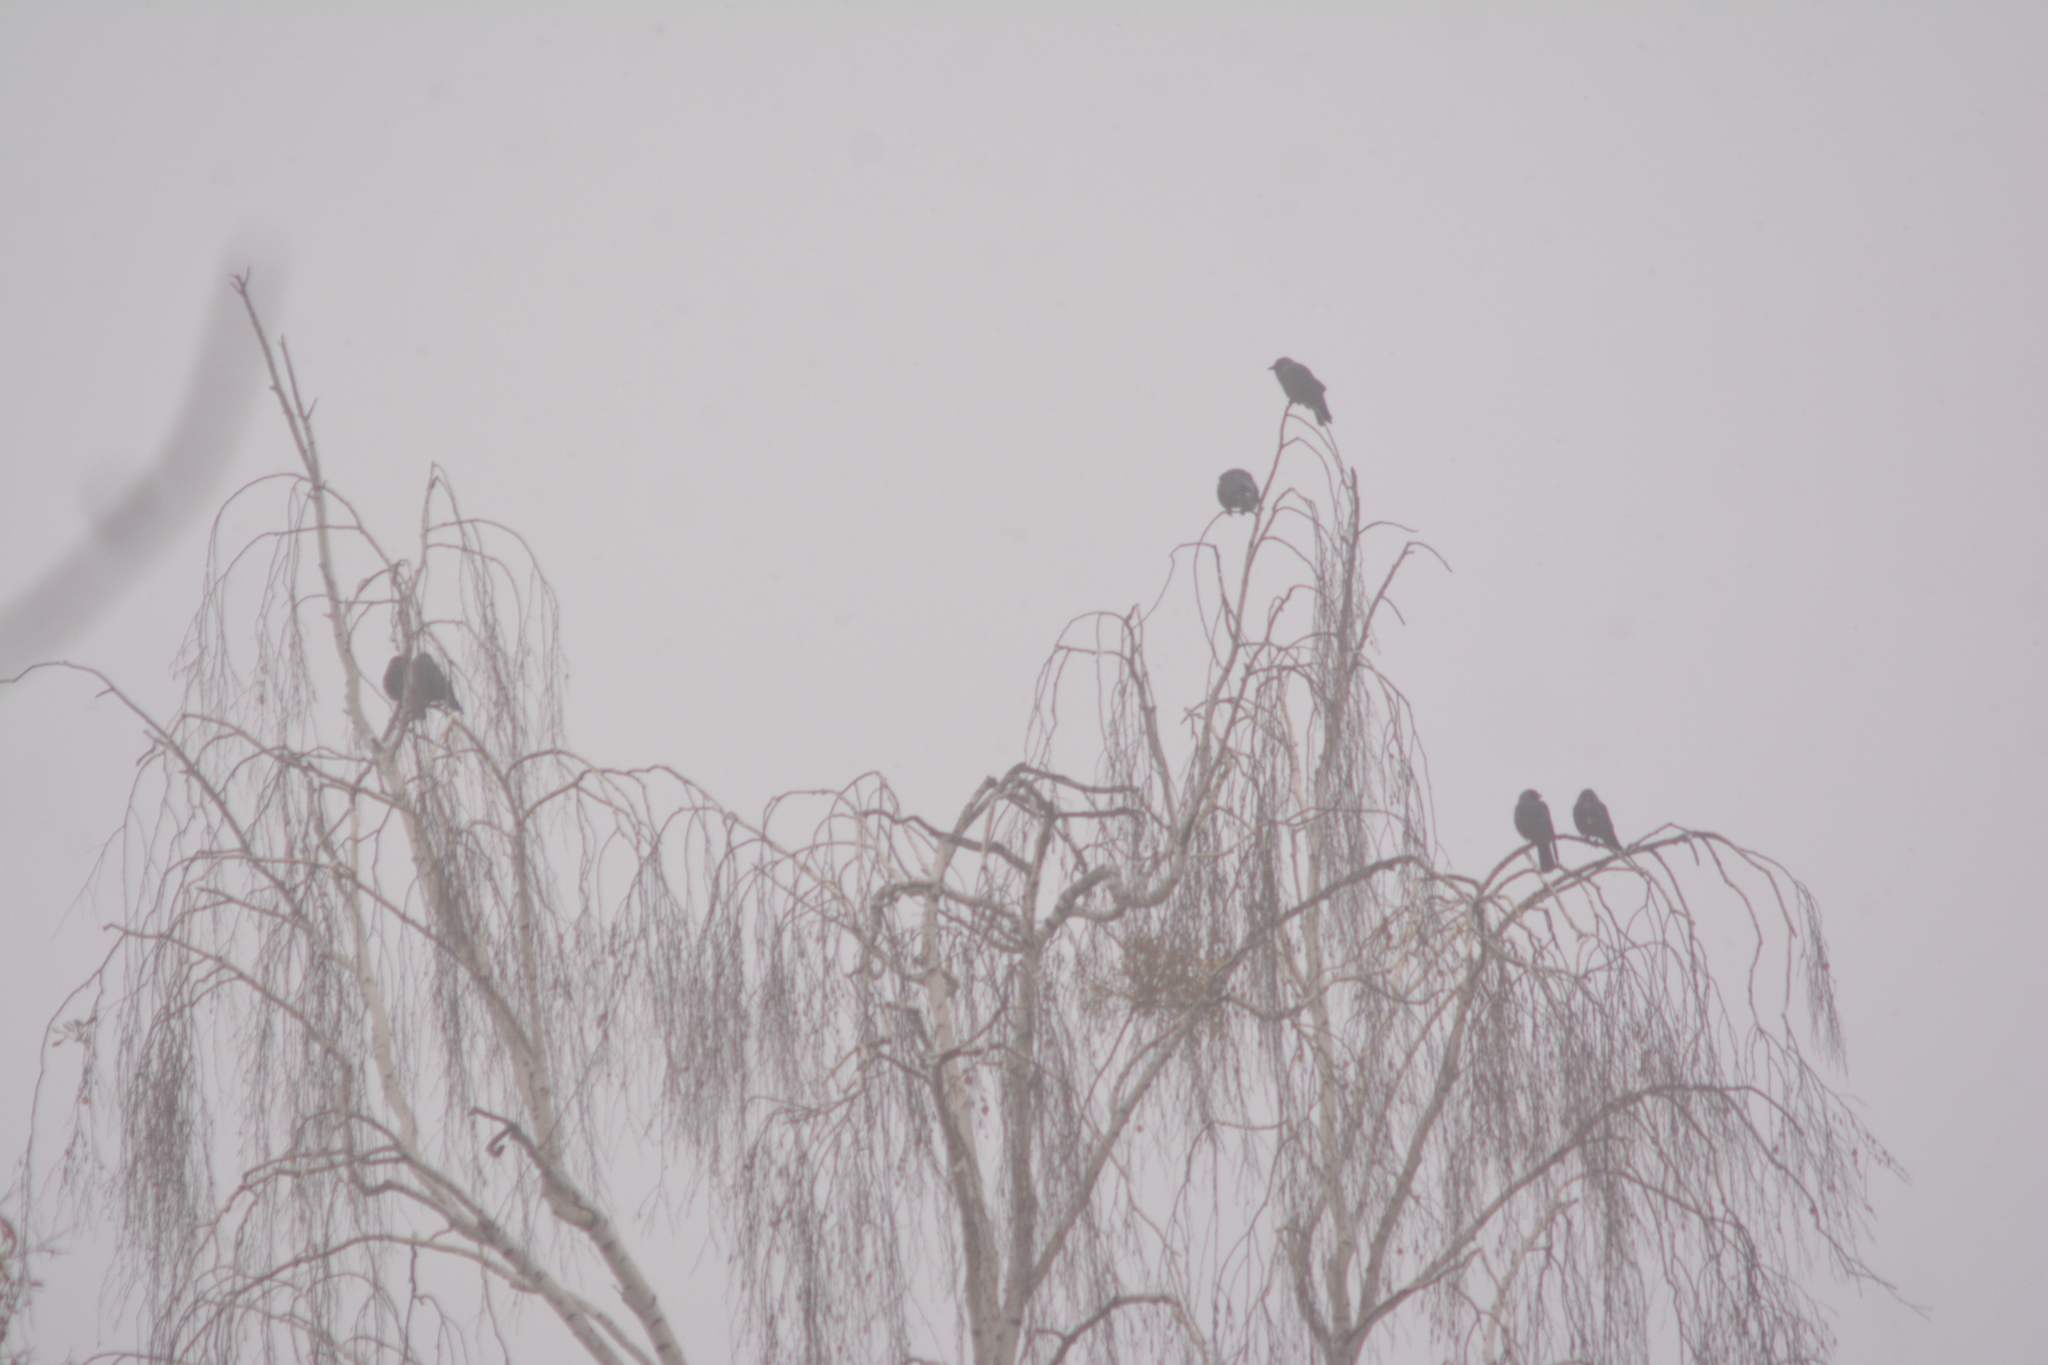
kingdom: Animalia
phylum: Chordata
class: Aves
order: Passeriformes
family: Corvidae
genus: Coloeus
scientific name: Coloeus monedula
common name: Western jackdaw
